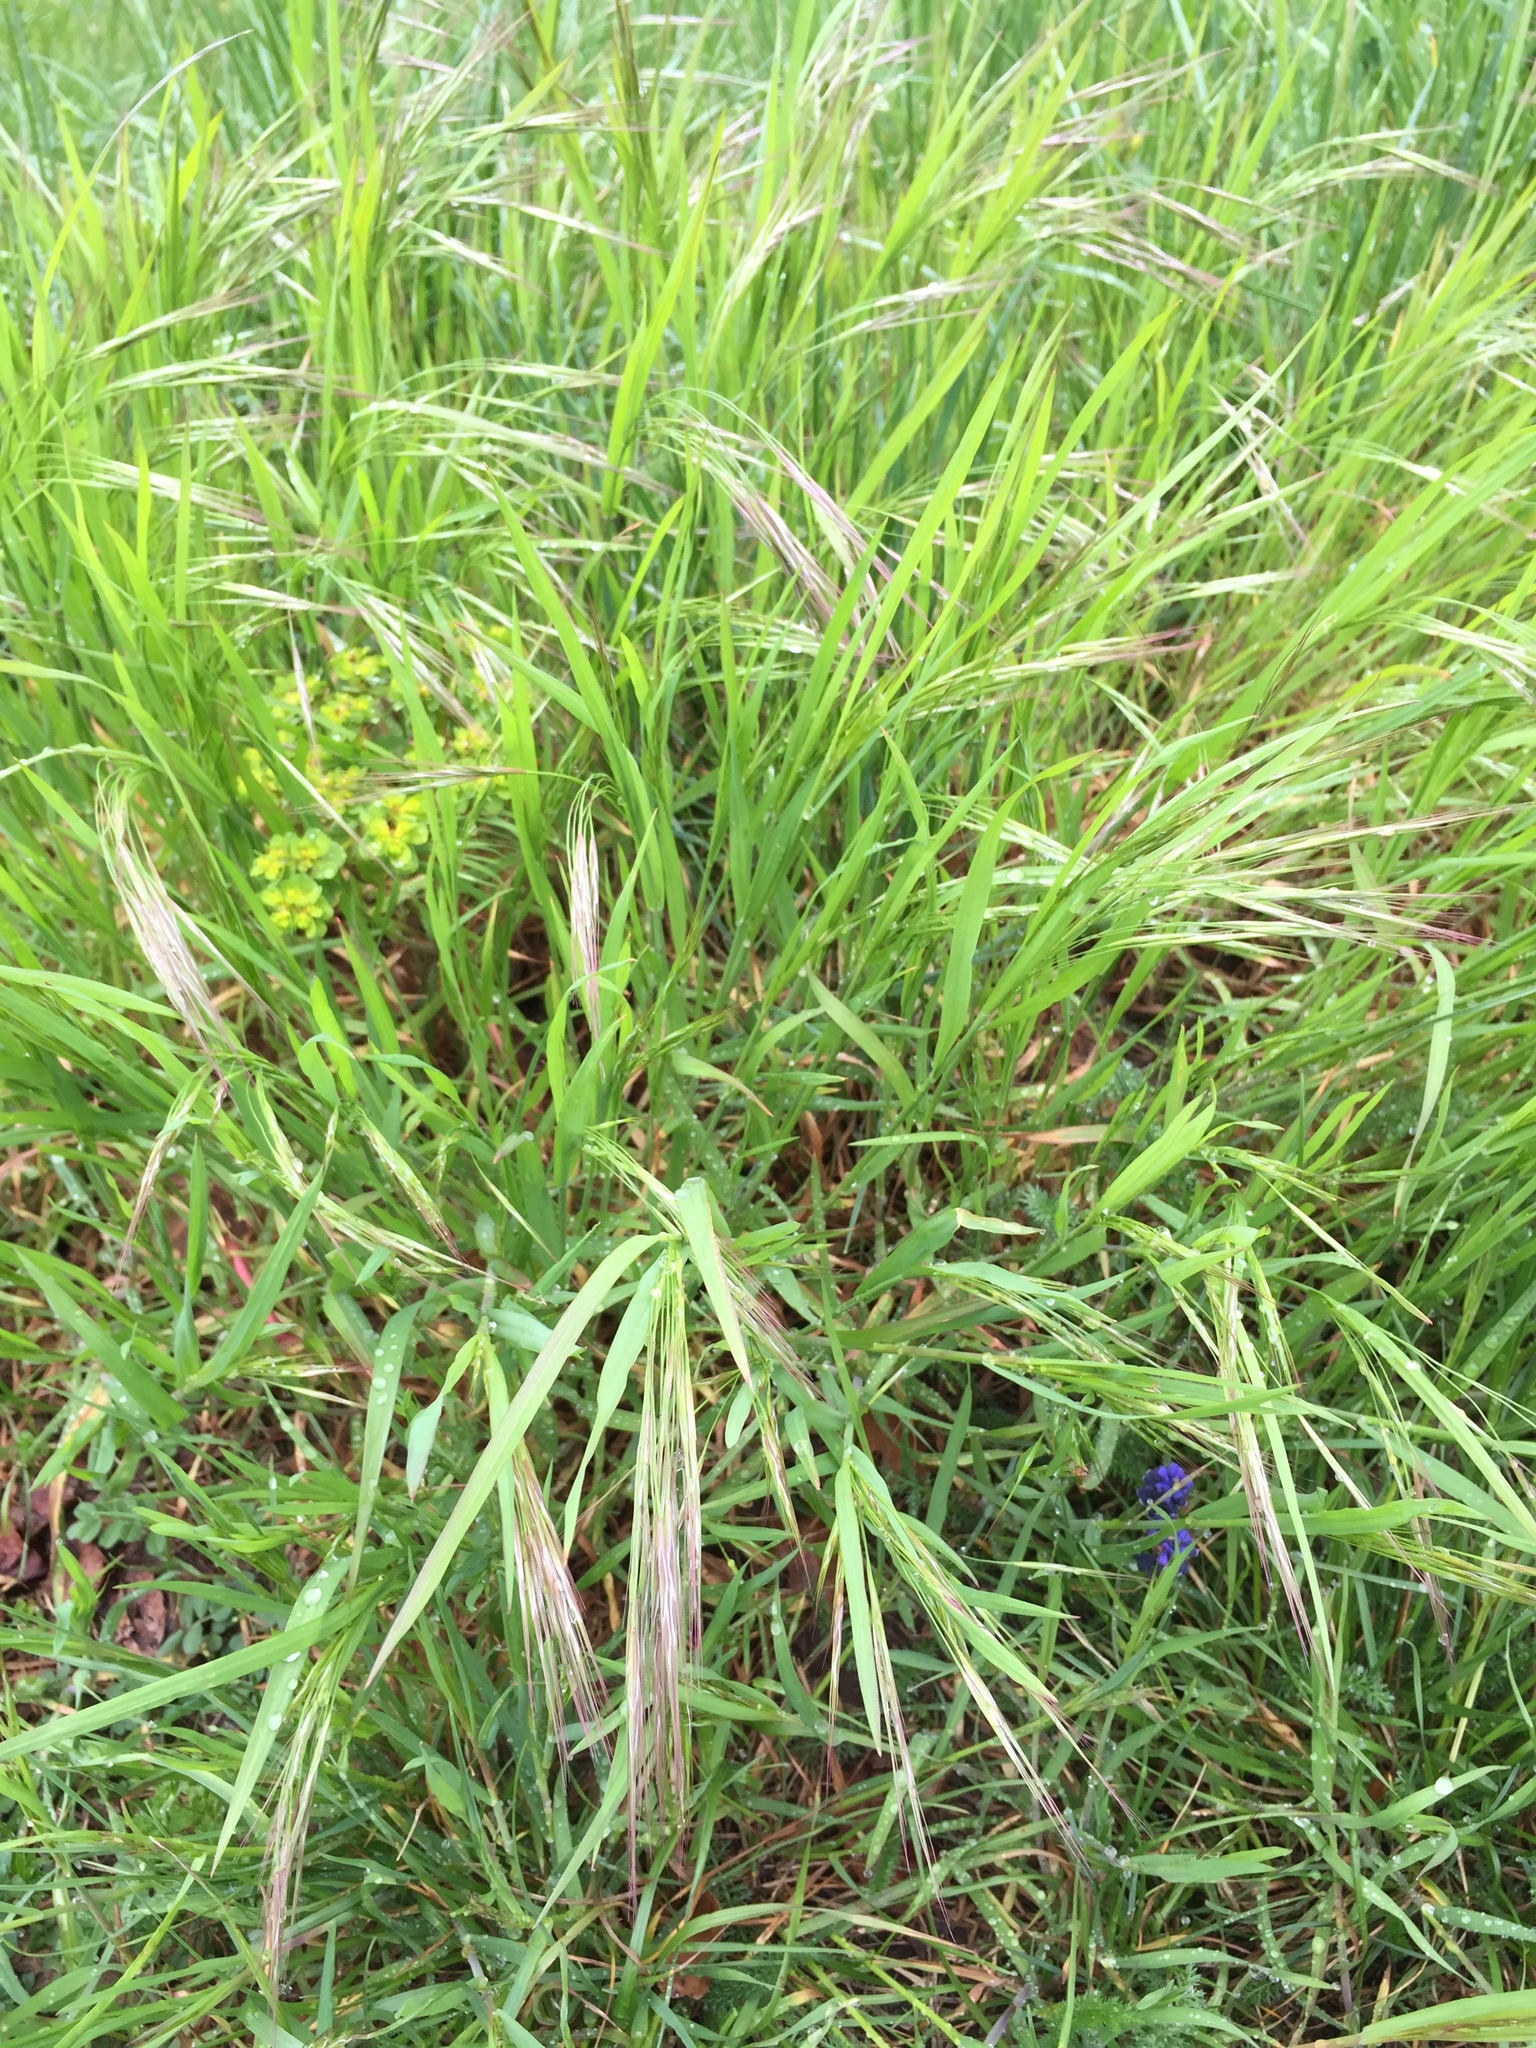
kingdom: Plantae
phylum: Tracheophyta
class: Liliopsida
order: Poales
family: Poaceae
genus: Bromus
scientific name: Bromus tectorum
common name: Cheatgrass
